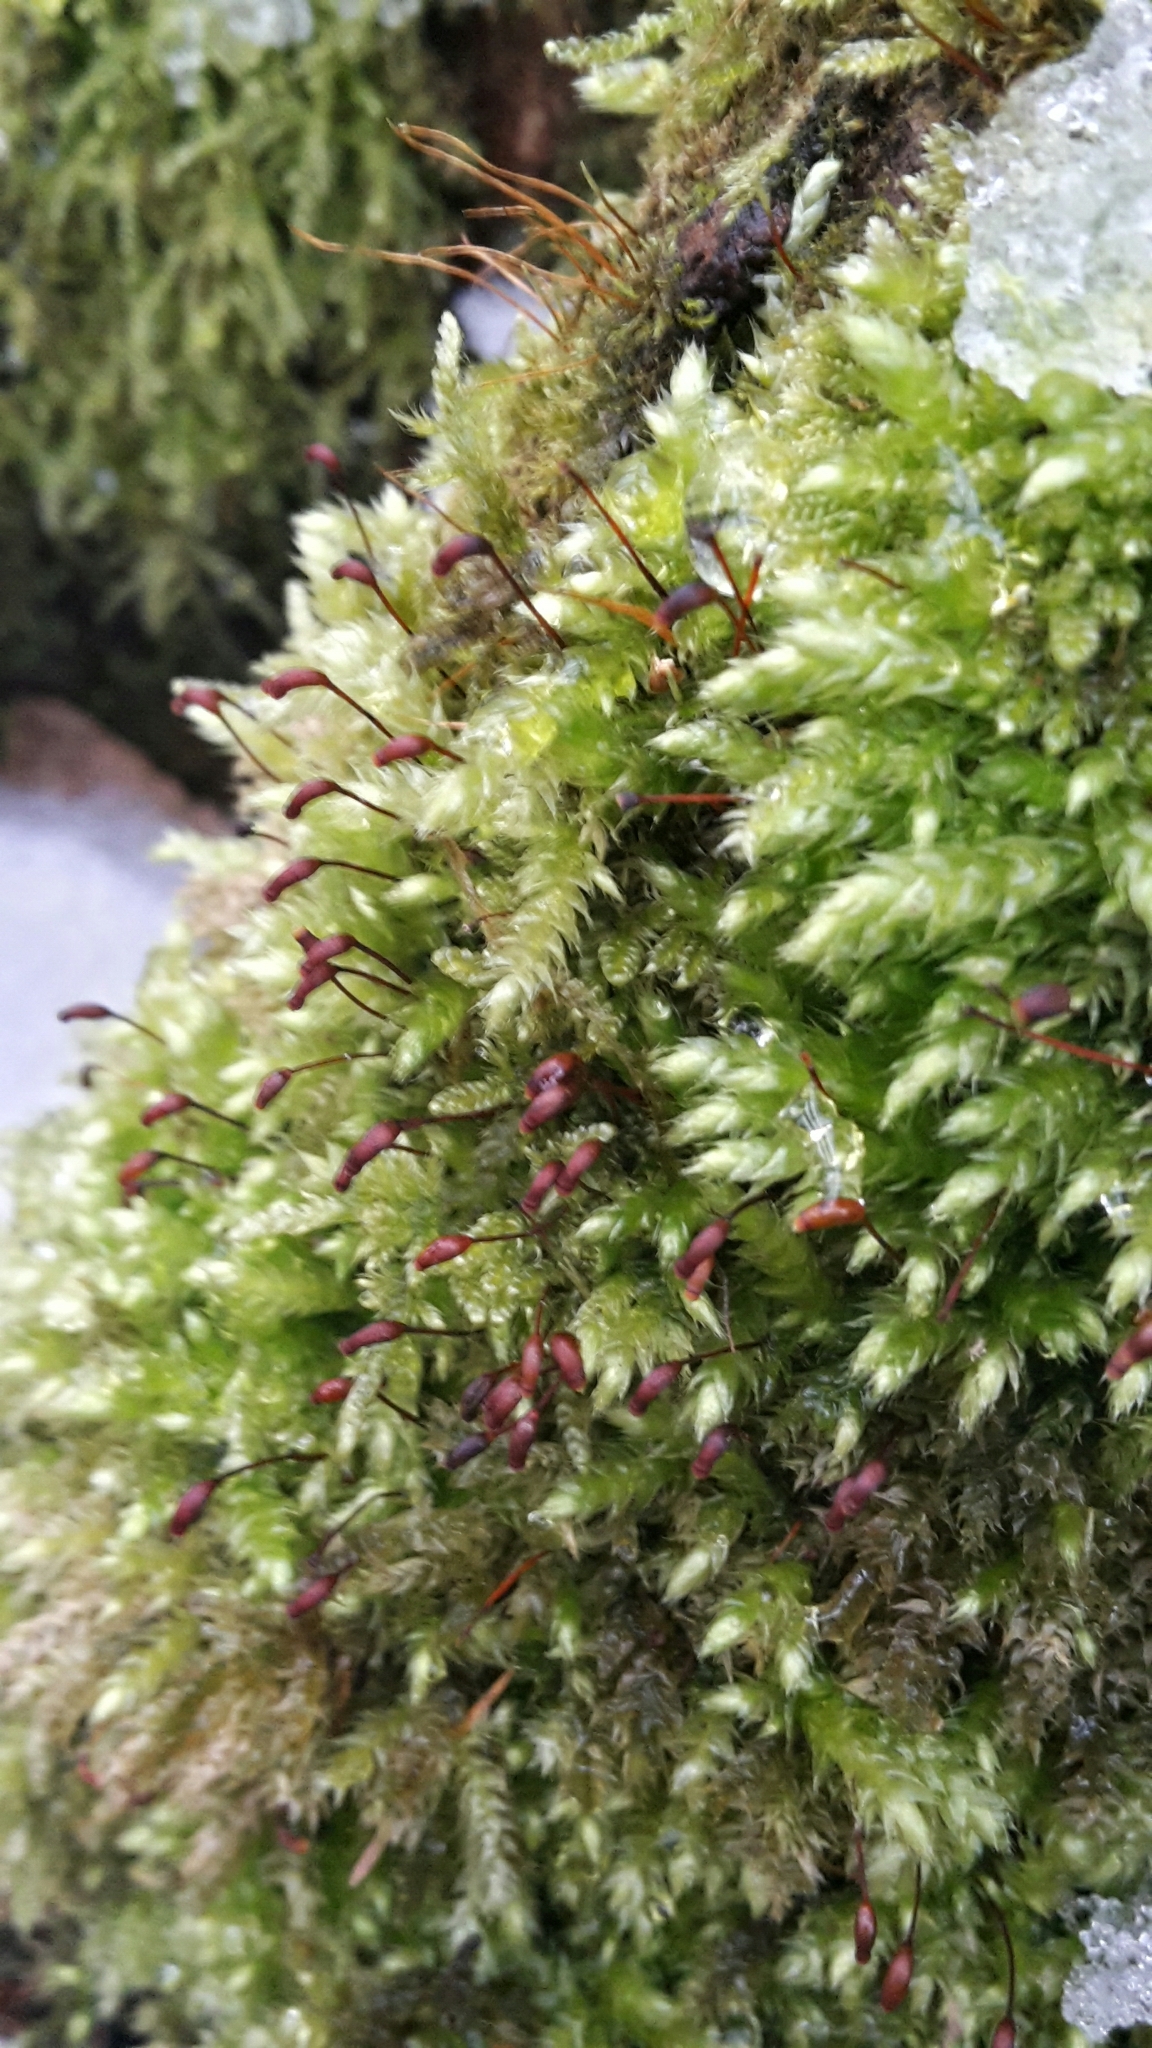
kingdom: Plantae
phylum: Bryophyta
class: Bryopsida
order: Hypnales
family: Brachytheciaceae
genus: Brachythecium
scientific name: Brachythecium rutabulum
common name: Rough-stalked feather-moss
